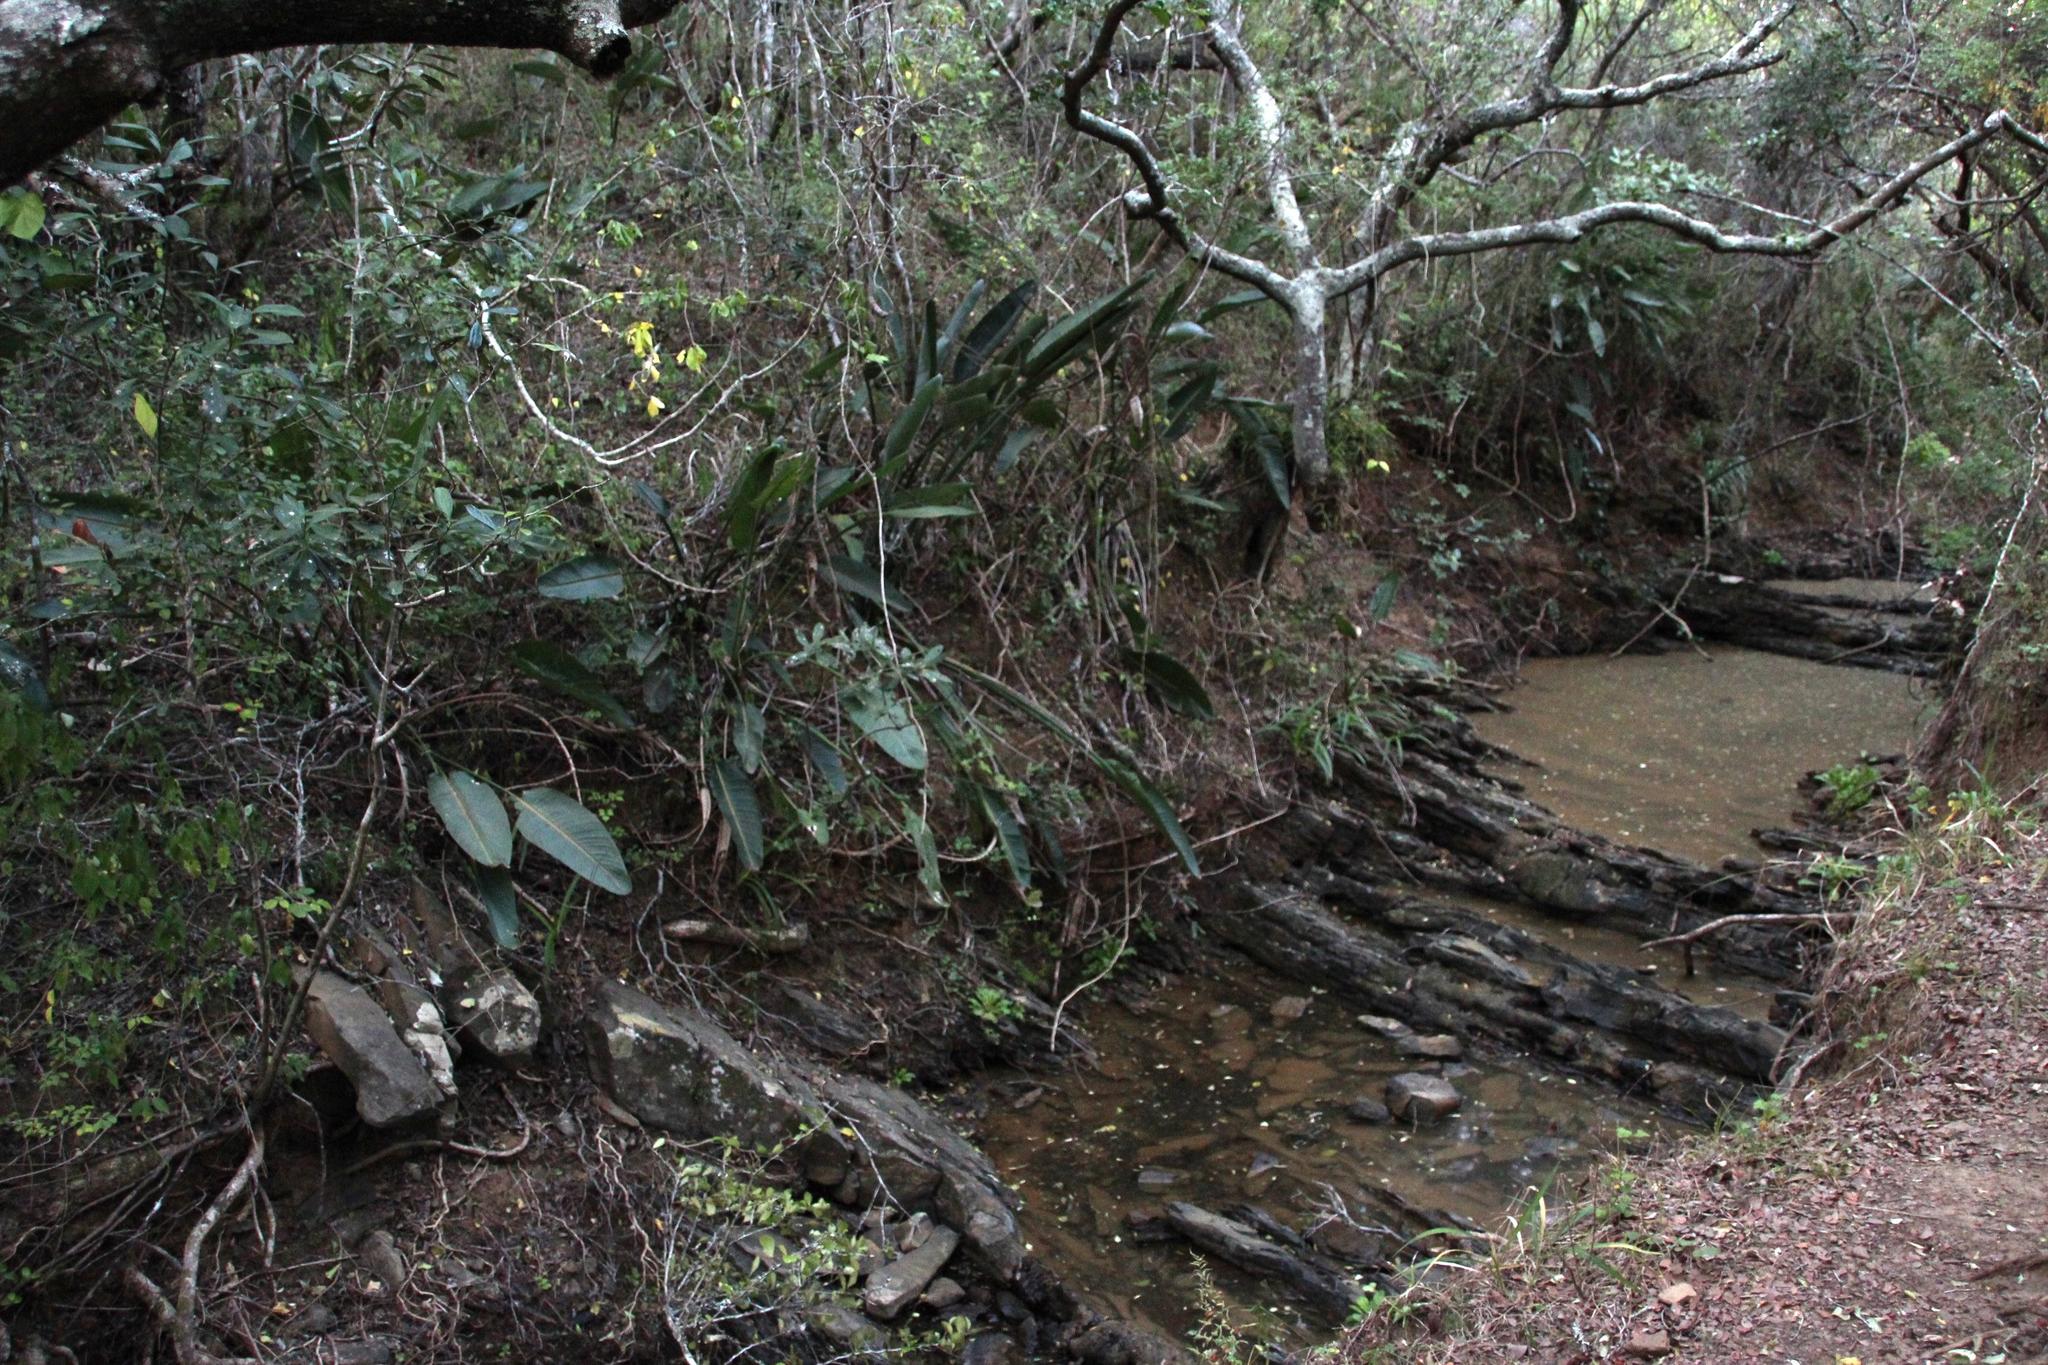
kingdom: Plantae
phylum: Tracheophyta
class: Liliopsida
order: Zingiberales
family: Strelitziaceae
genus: Strelitzia
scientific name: Strelitzia reginae
